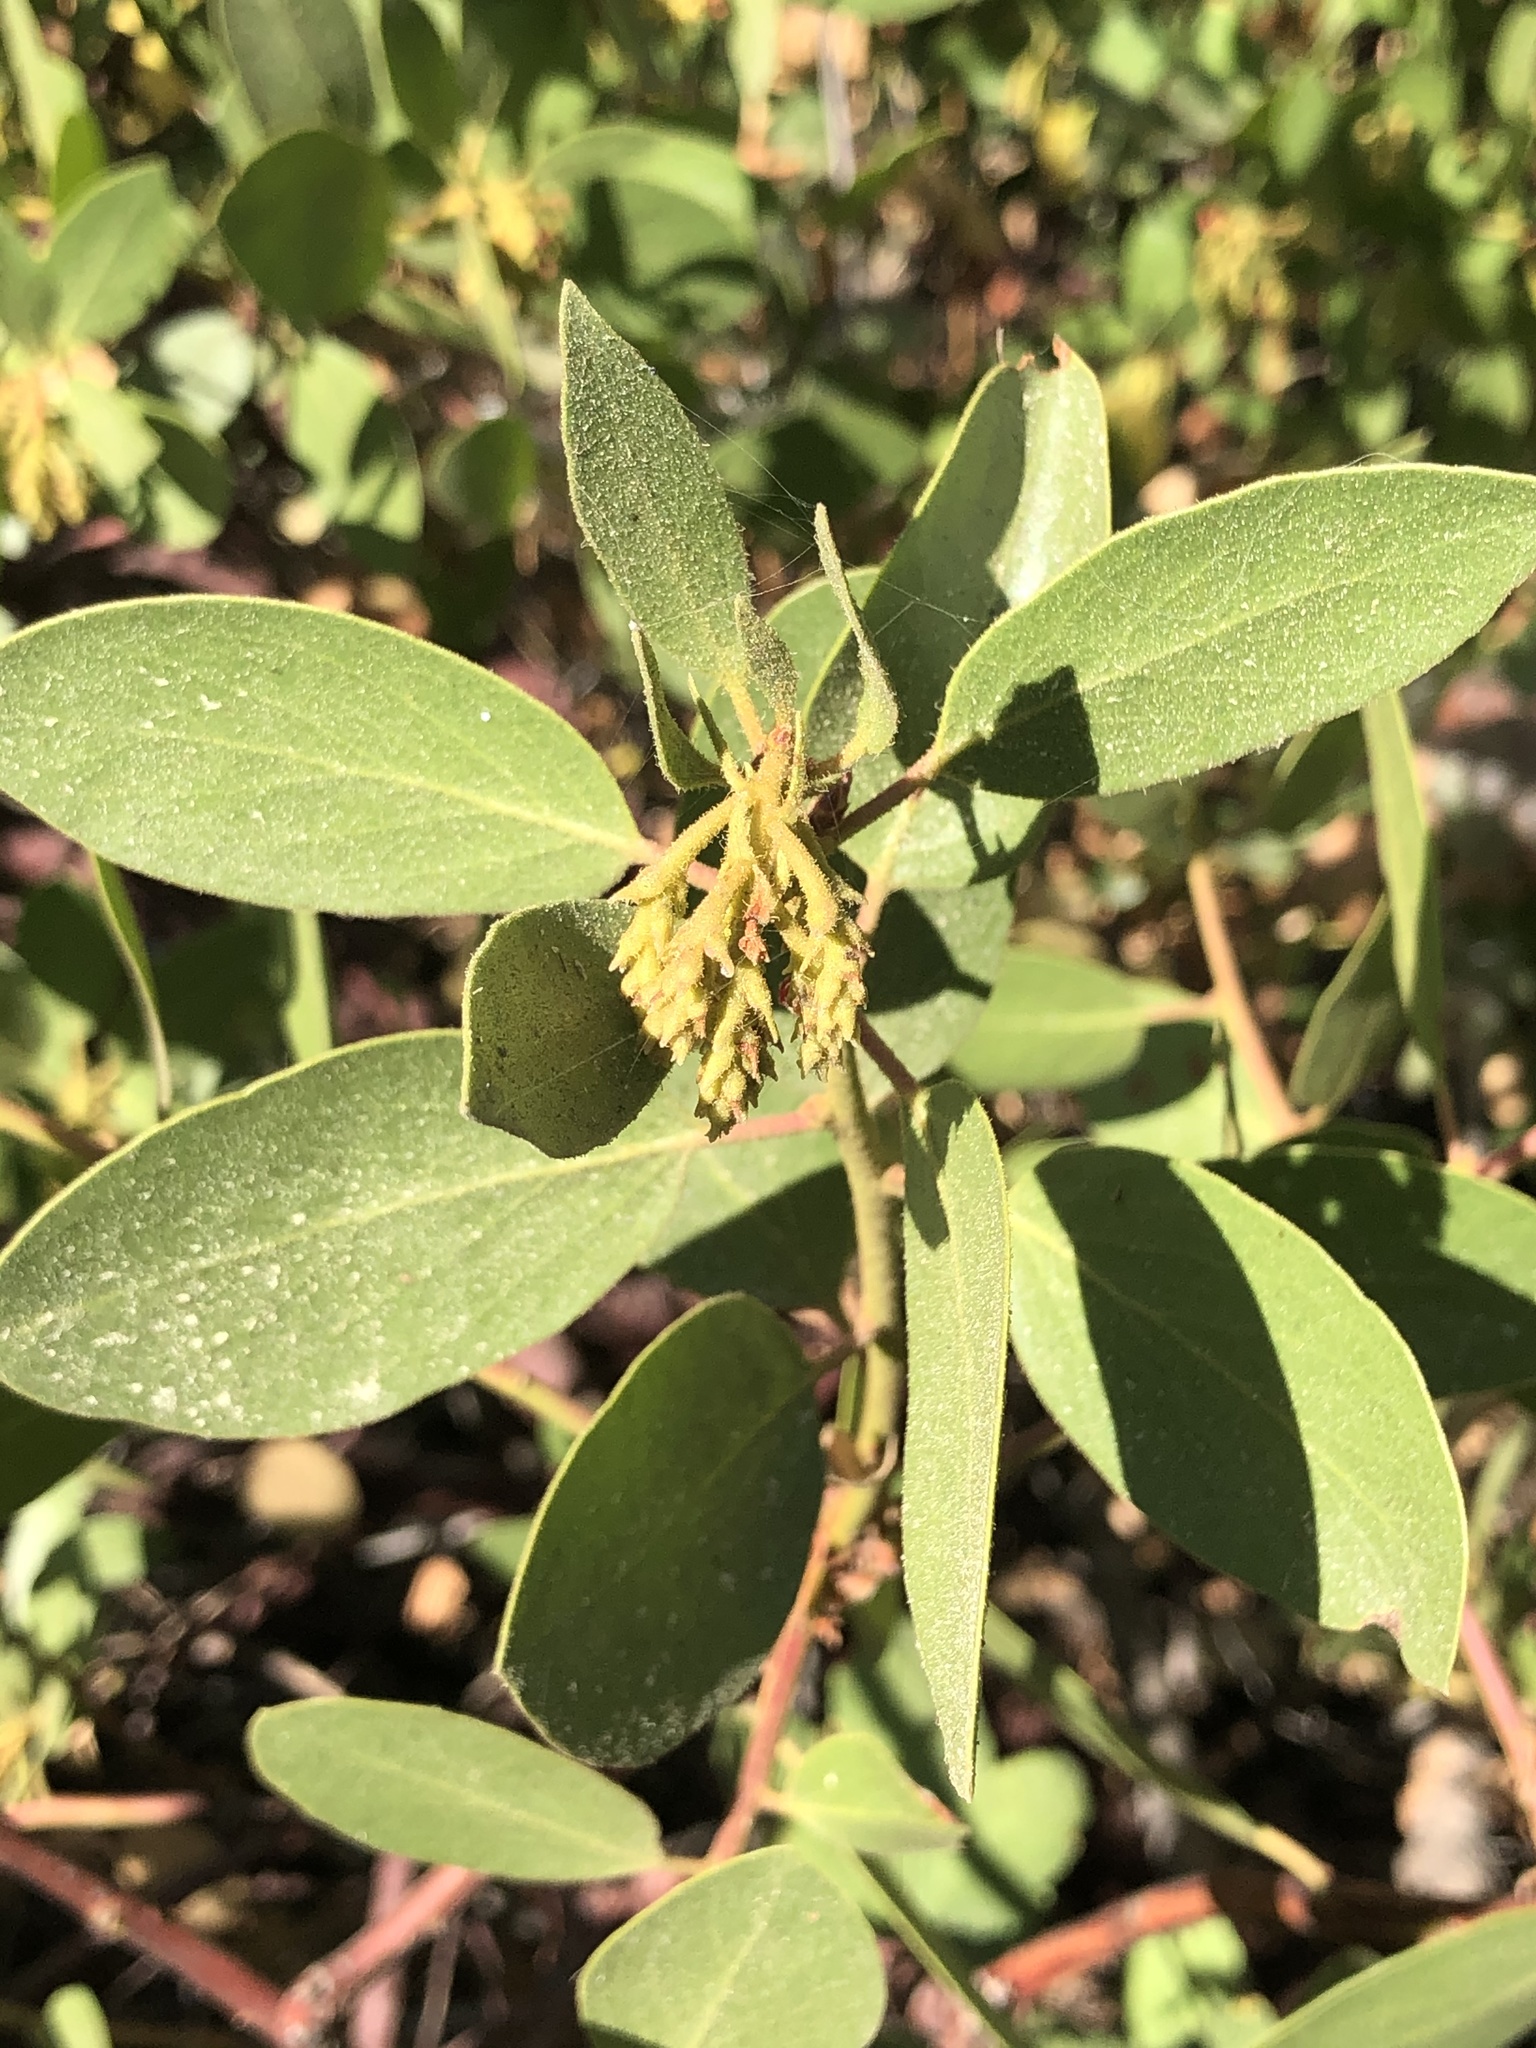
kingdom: Plantae
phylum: Tracheophyta
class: Magnoliopsida
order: Ericales
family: Ericaceae
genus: Arctostaphylos
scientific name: Arctostaphylos patula
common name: Green-leaf manzanita
